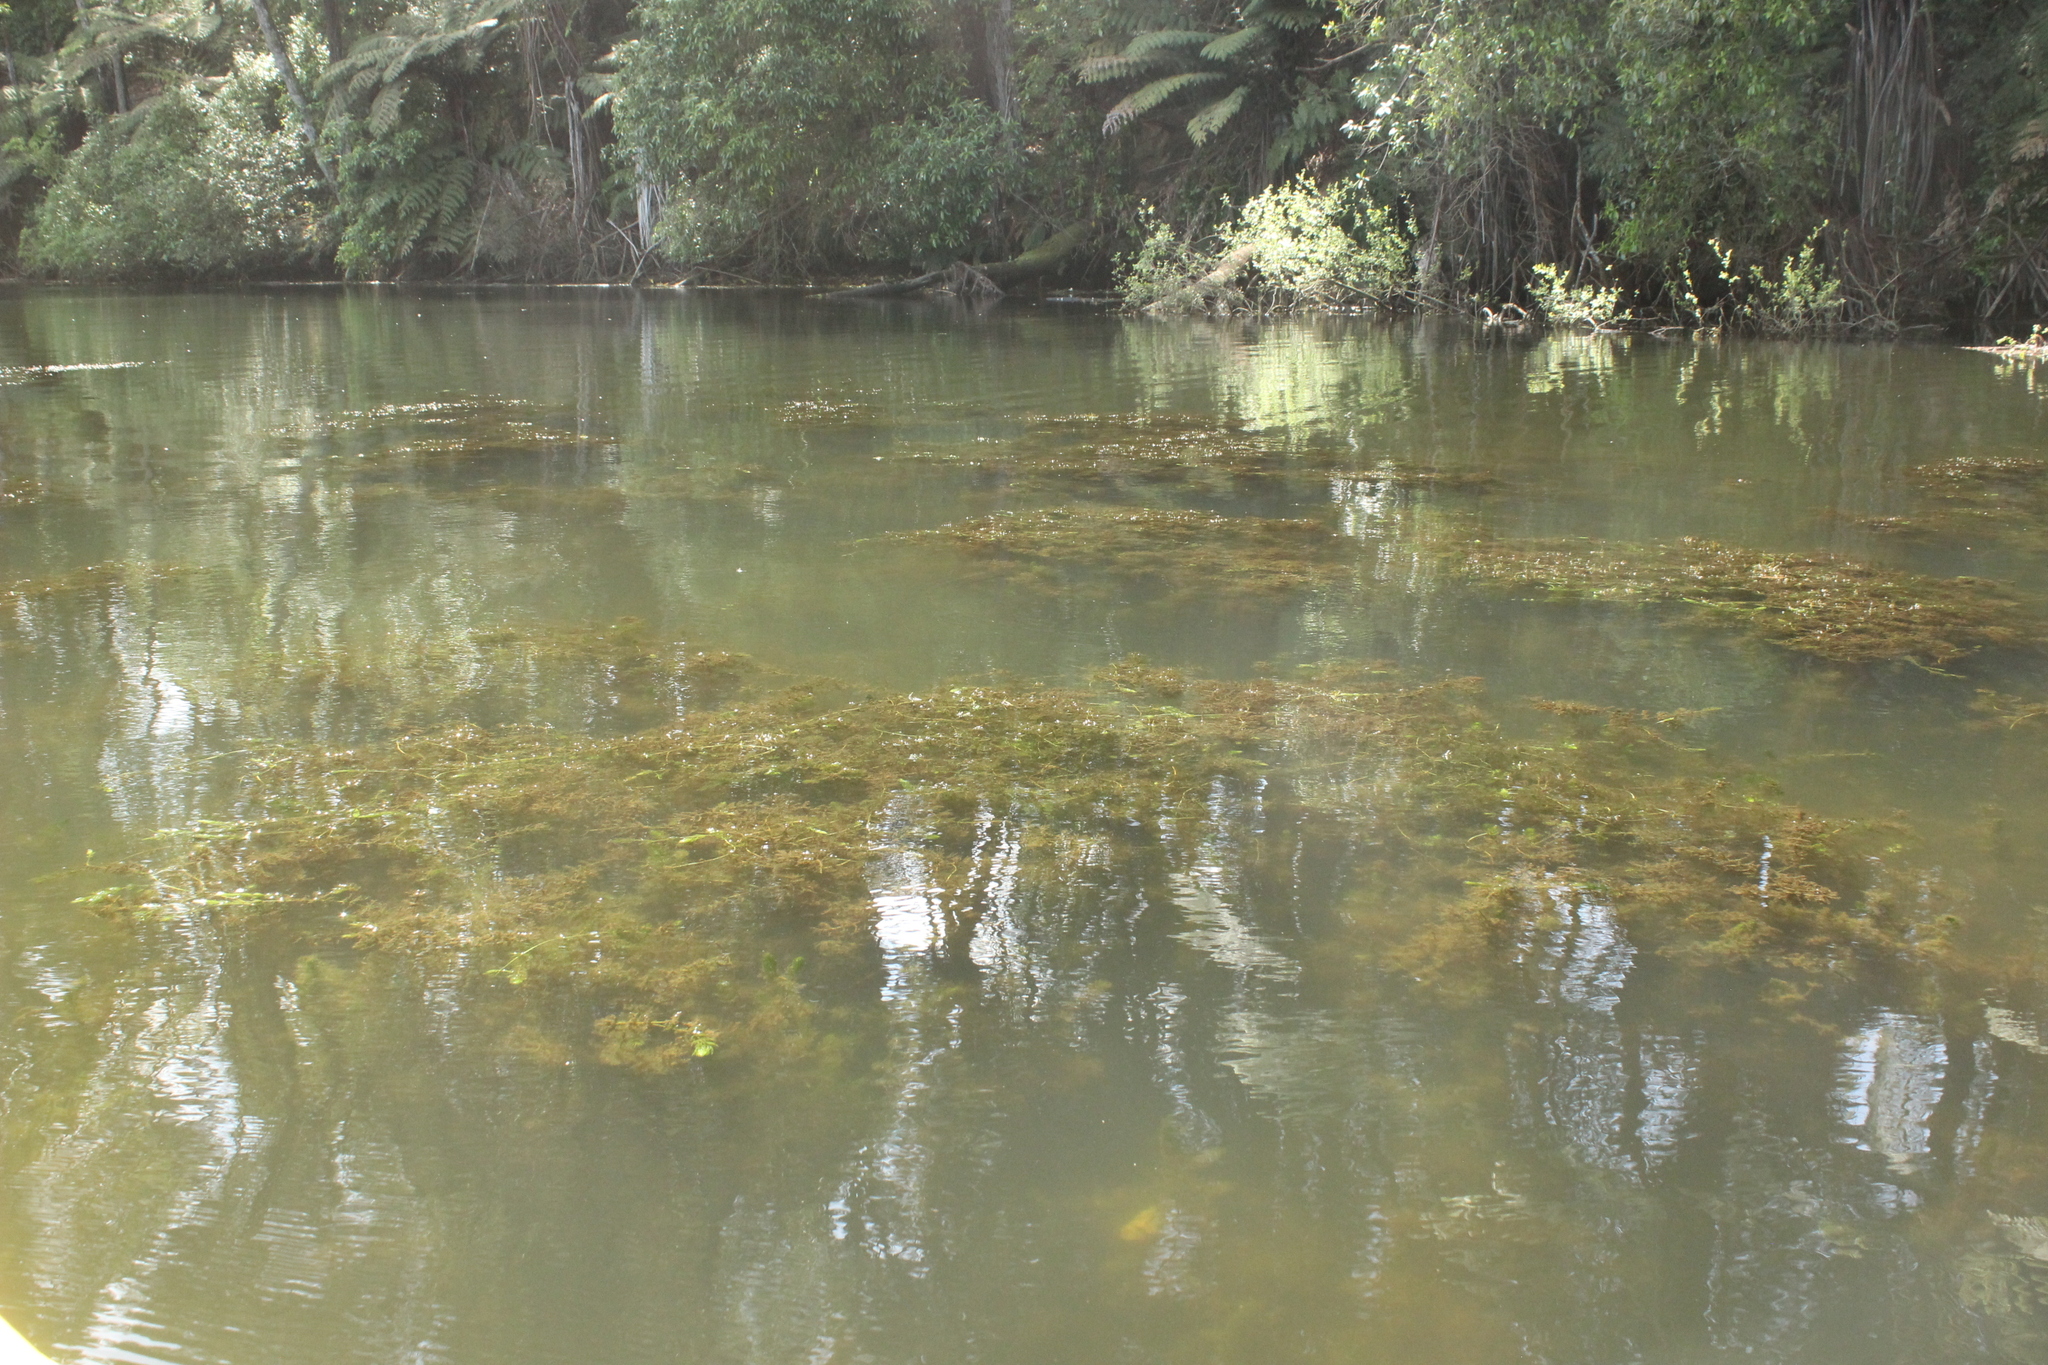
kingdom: Plantae
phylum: Tracheophyta
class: Magnoliopsida
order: Ceratophyllales
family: Ceratophyllaceae
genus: Ceratophyllum
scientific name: Ceratophyllum demersum
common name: Rigid hornwort
